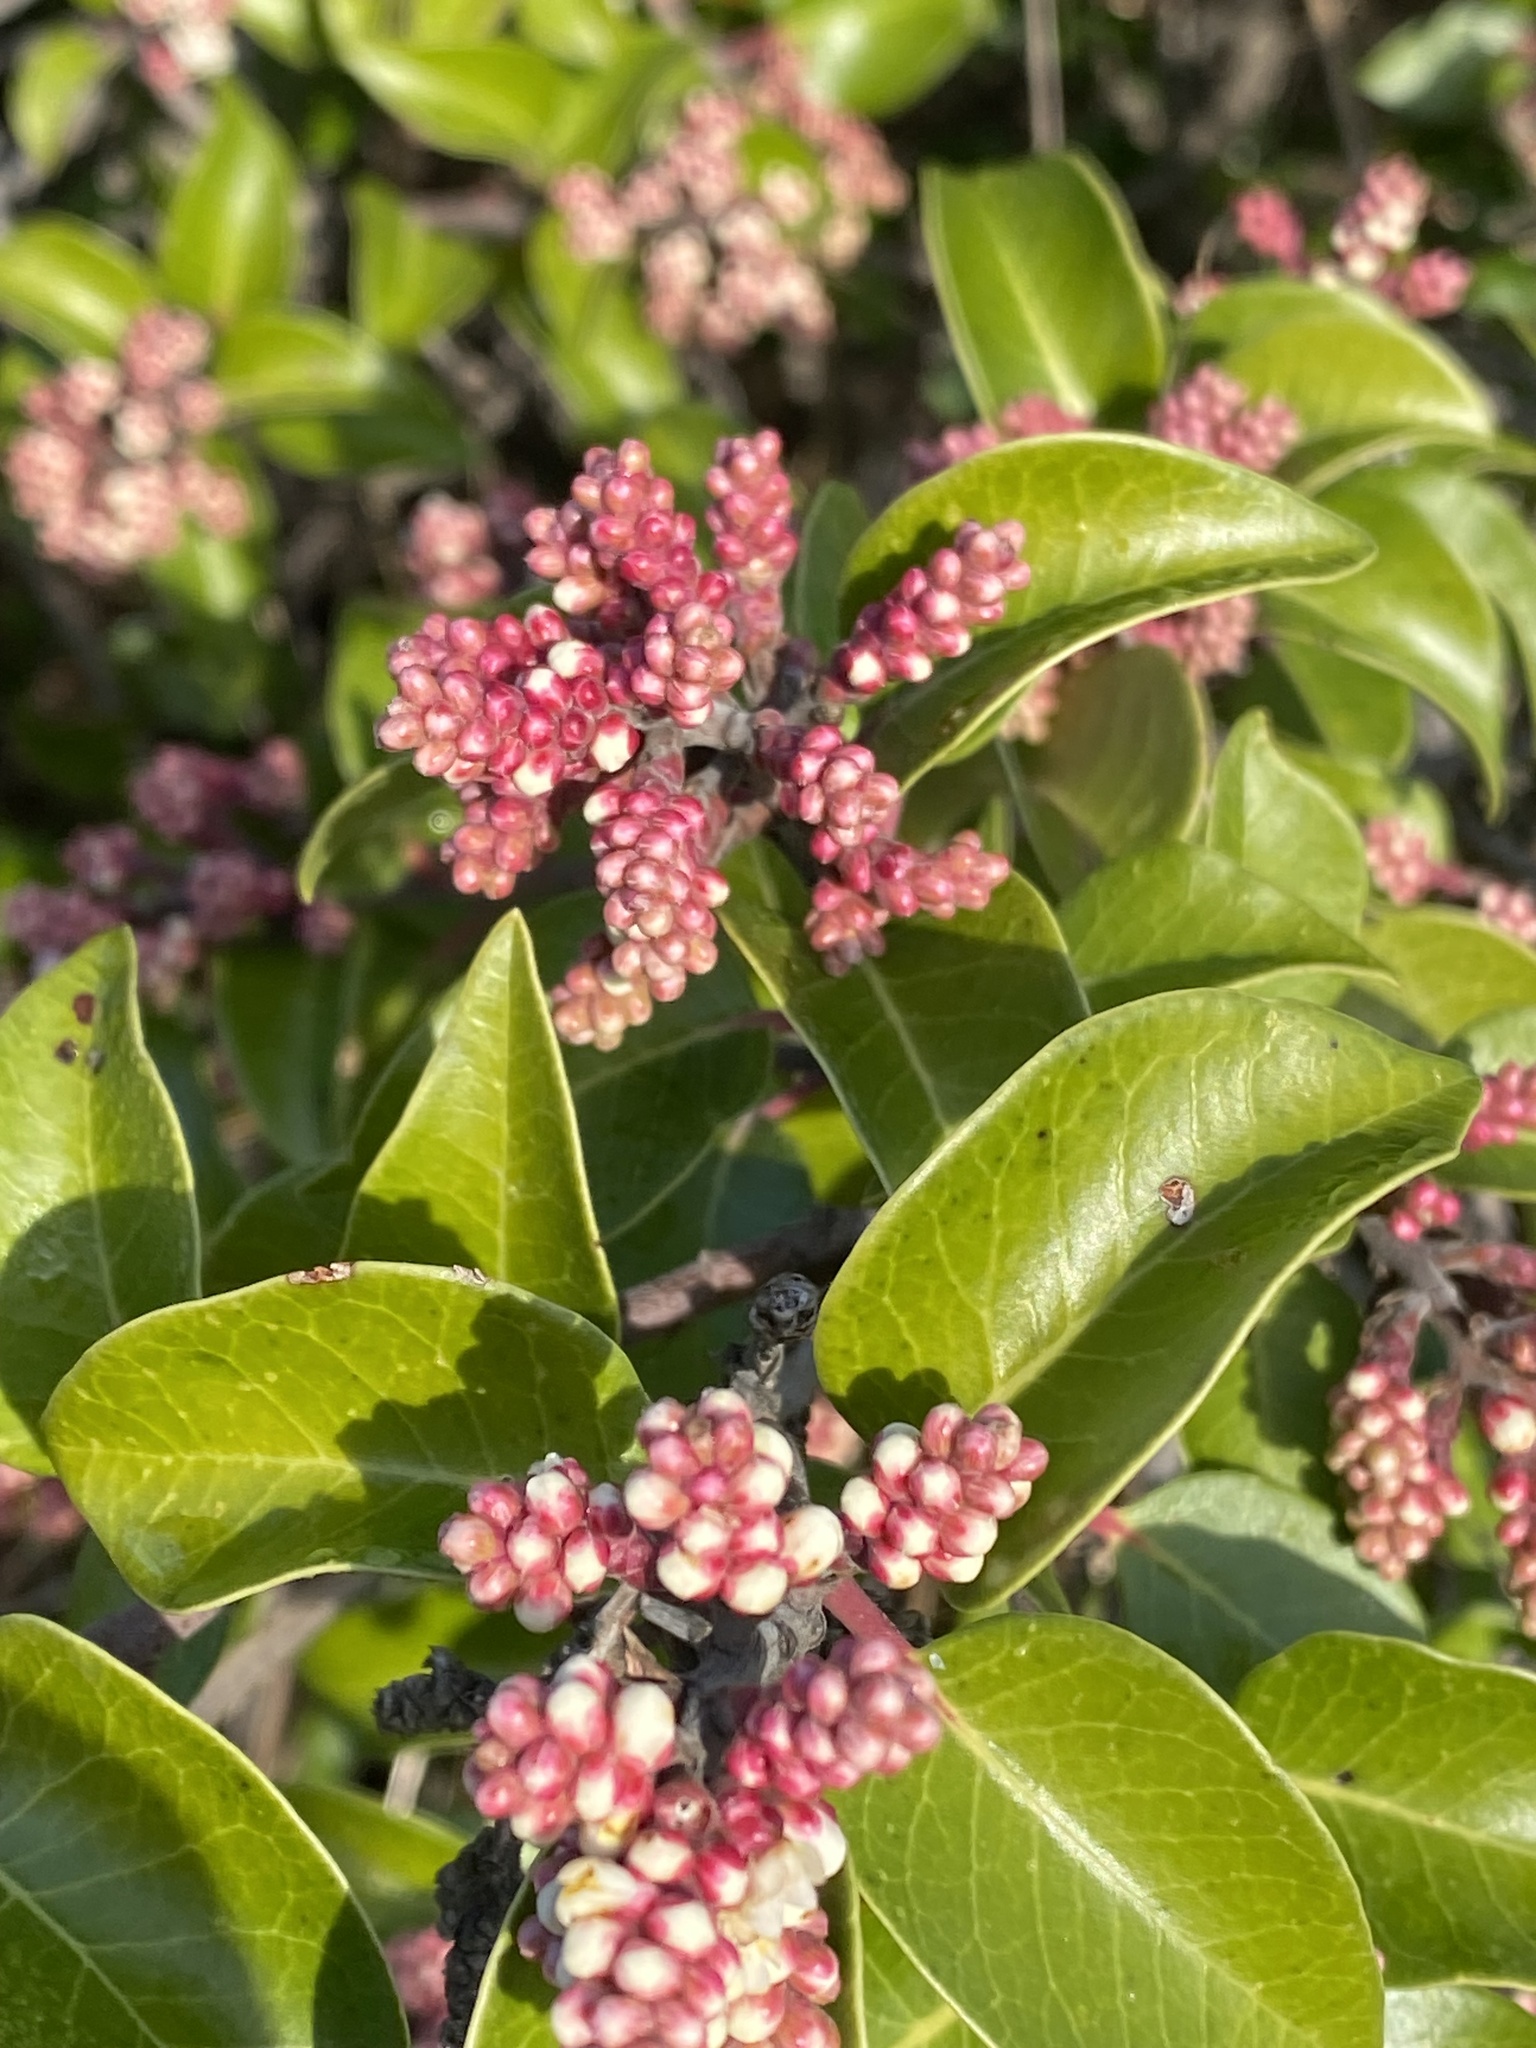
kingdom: Plantae
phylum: Tracheophyta
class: Magnoliopsida
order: Sapindales
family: Anacardiaceae
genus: Rhus
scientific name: Rhus ovata
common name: Sugar sumac
